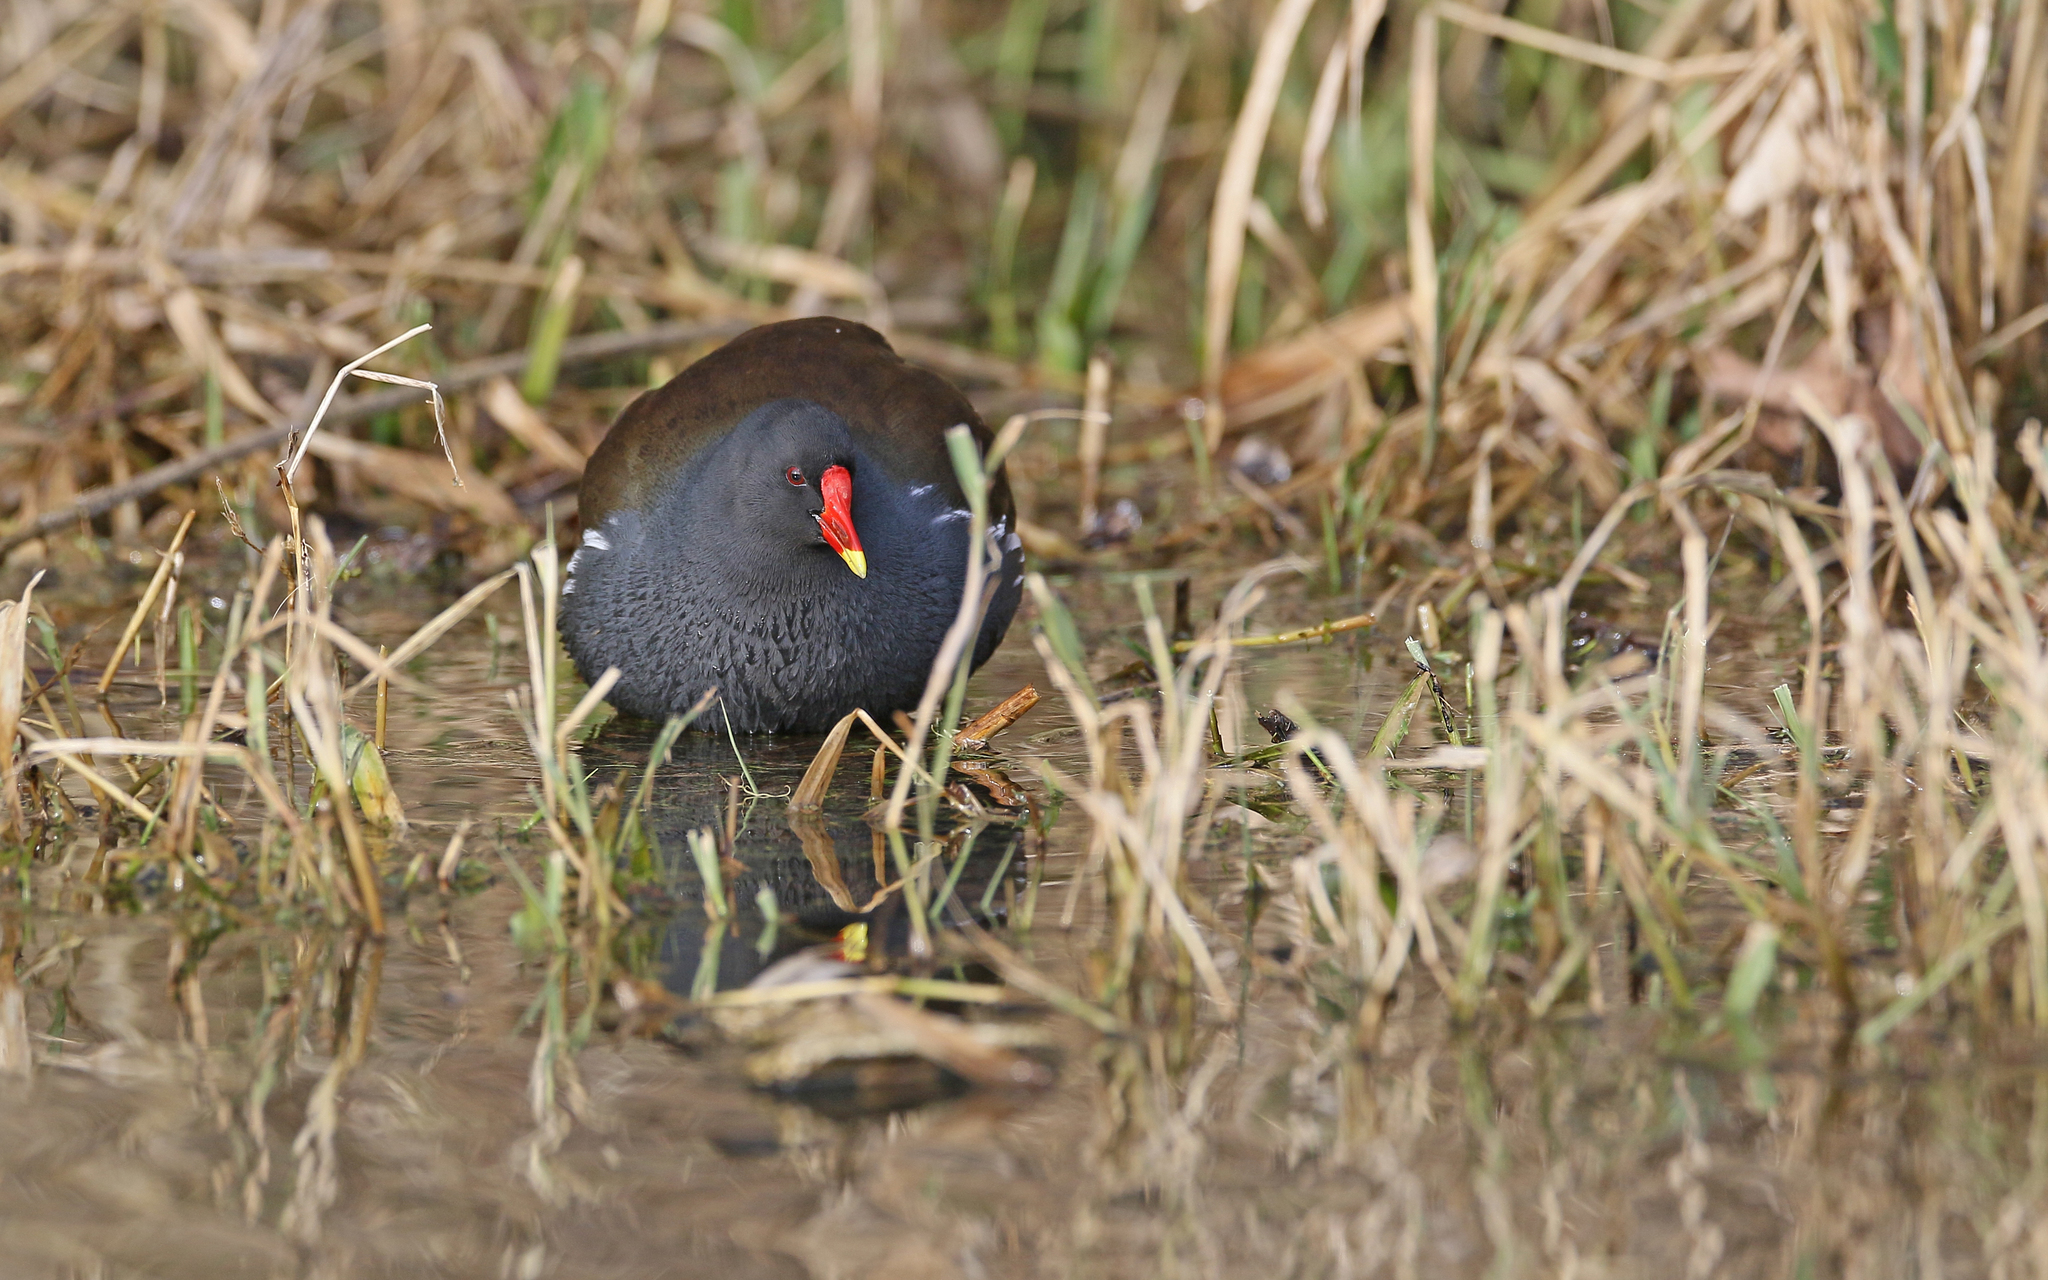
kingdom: Animalia
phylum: Chordata
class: Aves
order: Gruiformes
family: Rallidae
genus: Gallinula
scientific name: Gallinula chloropus
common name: Common moorhen
